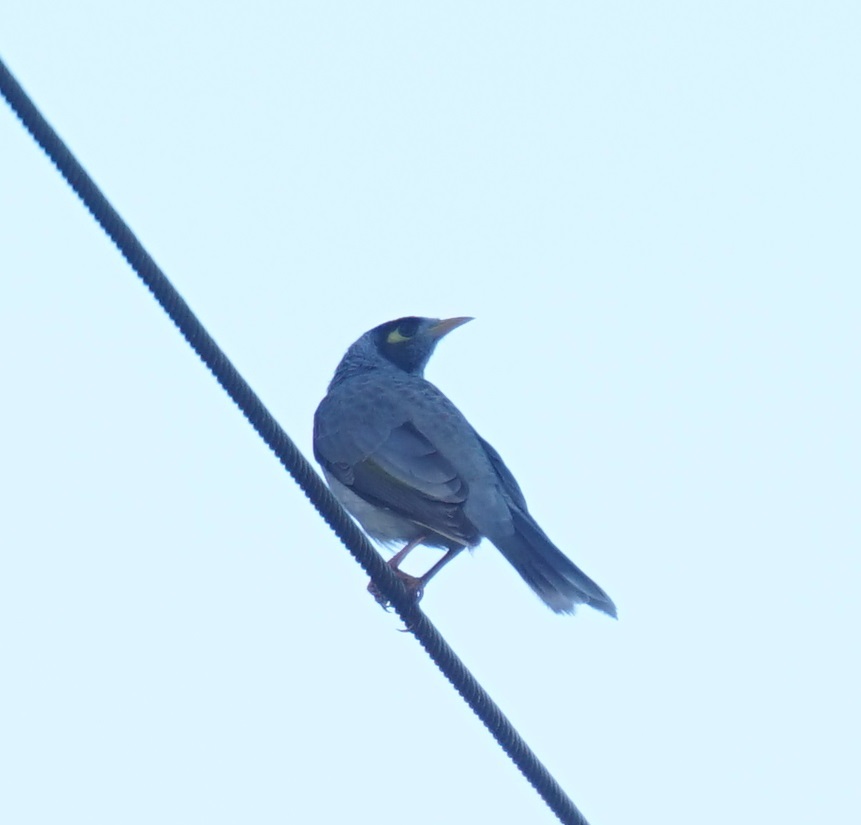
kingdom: Animalia
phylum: Chordata
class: Aves
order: Passeriformes
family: Meliphagidae
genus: Manorina
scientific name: Manorina melanocephala
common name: Noisy miner
